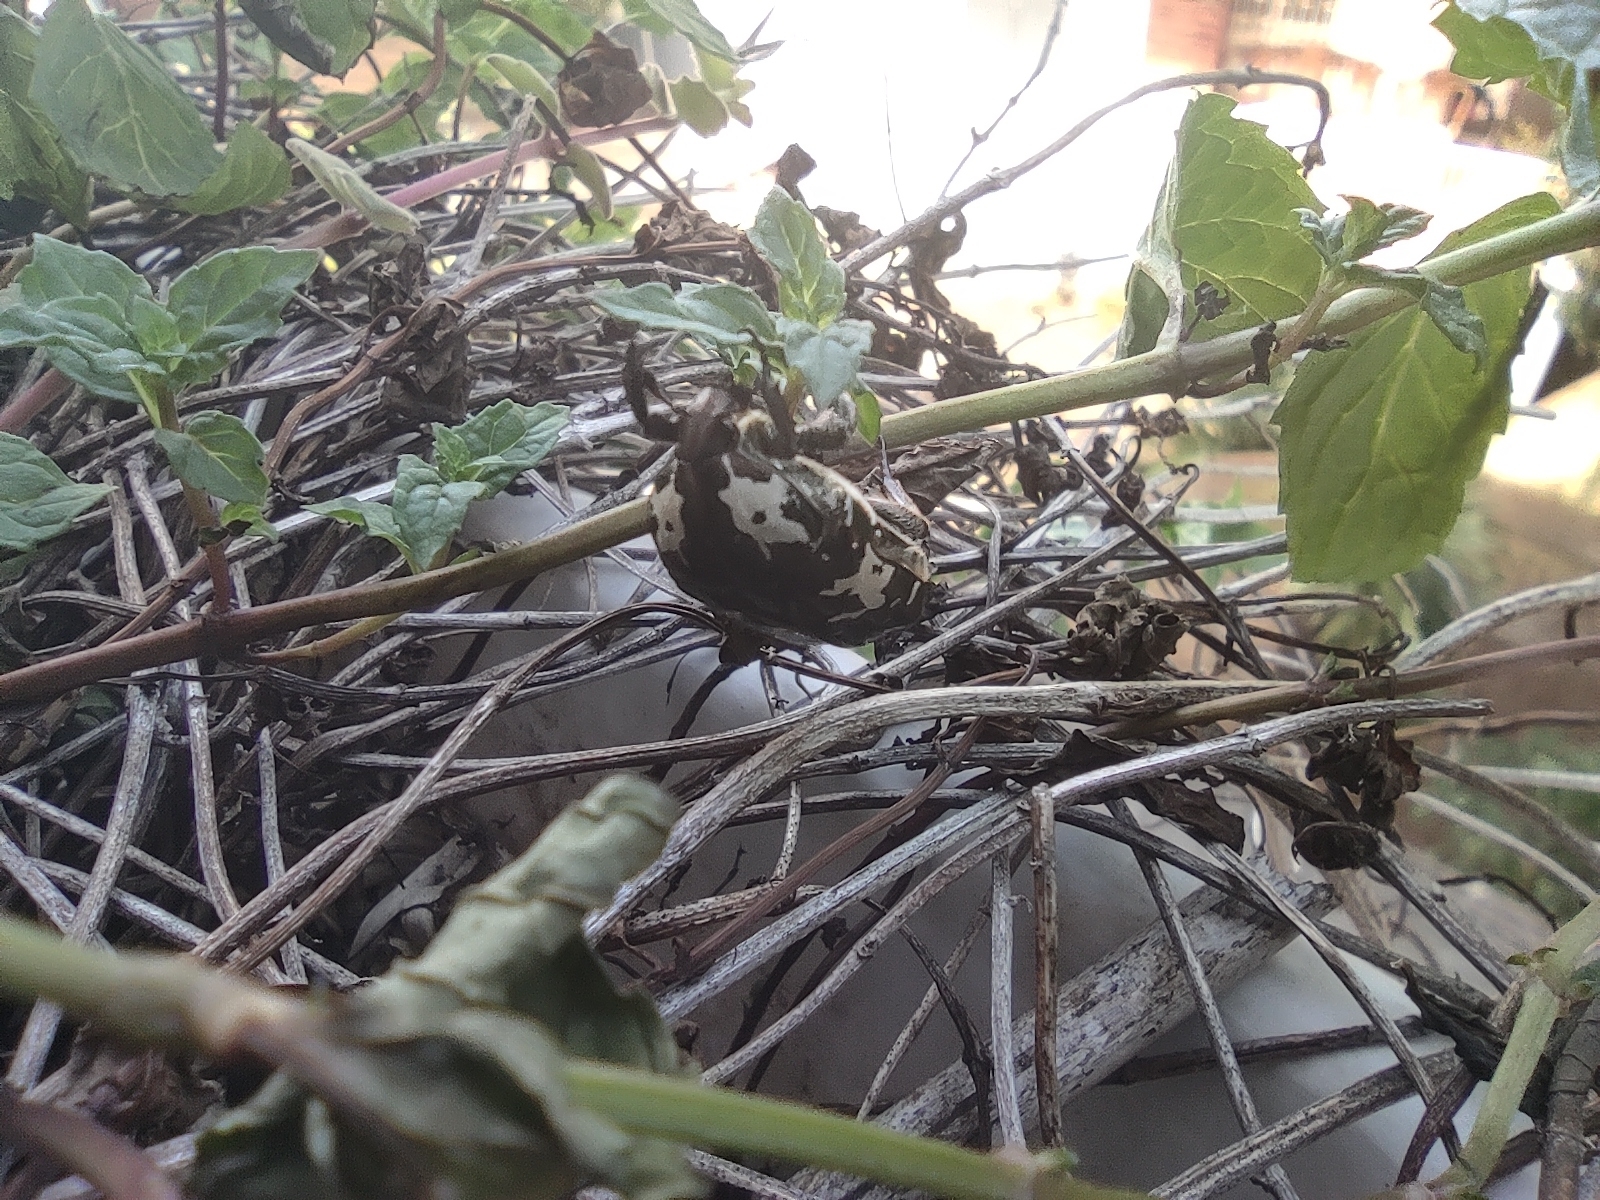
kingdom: Animalia
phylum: Arthropoda
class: Insecta
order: Coleoptera
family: Scarabaeidae
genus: Protaetia
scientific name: Protaetia aurichalcea
